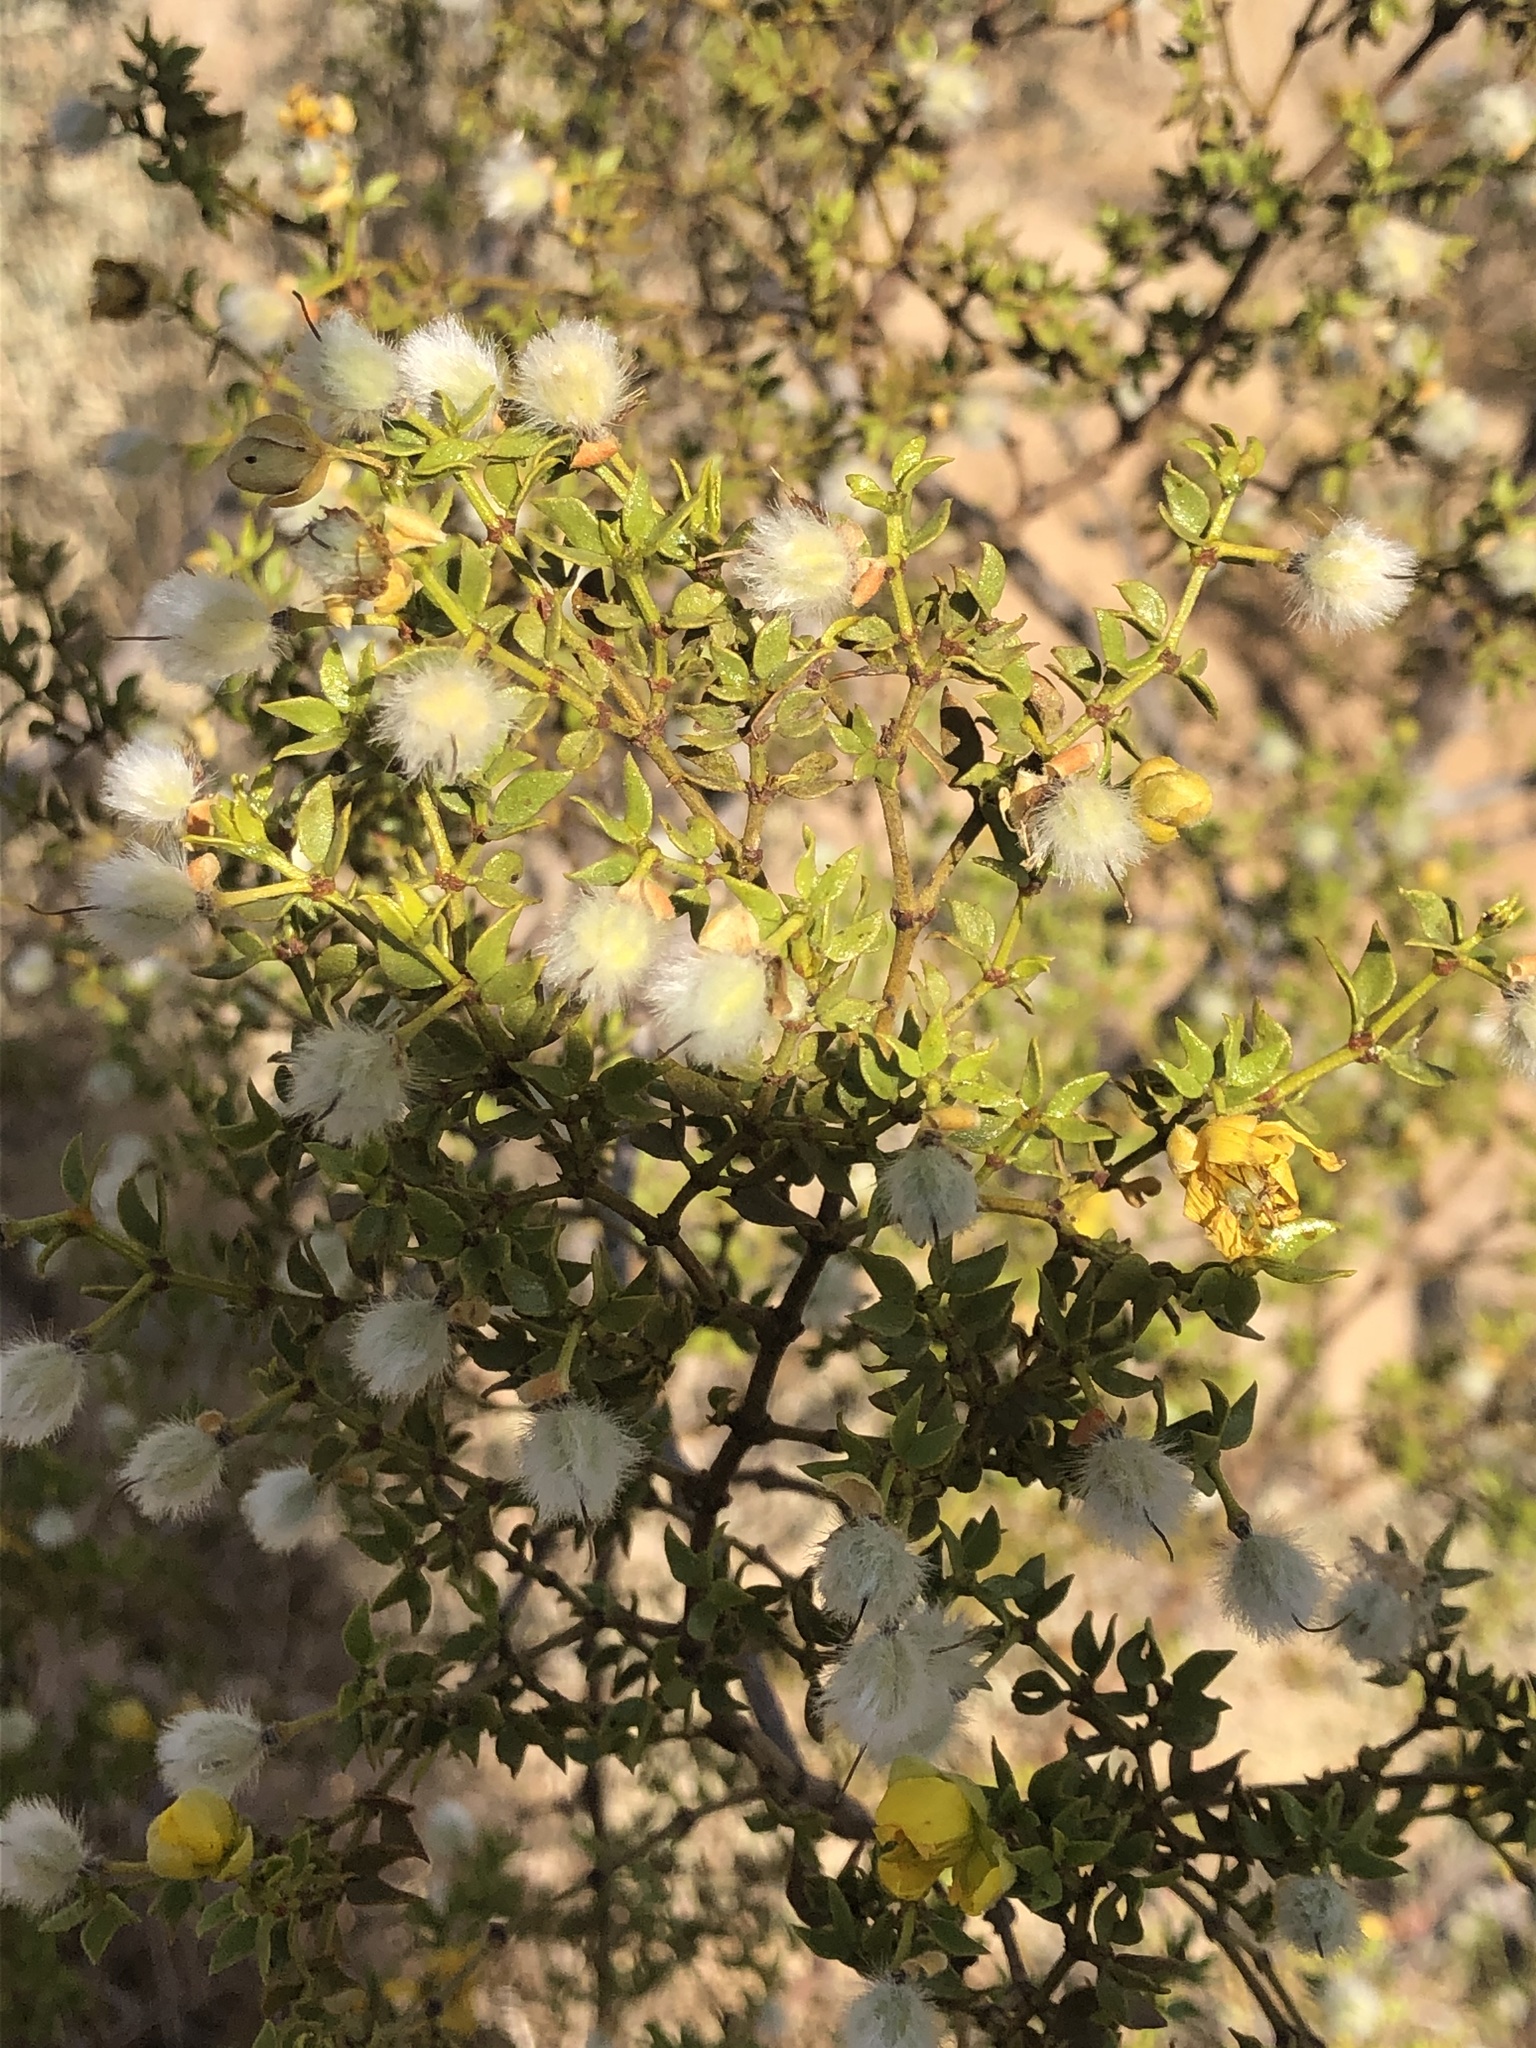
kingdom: Plantae
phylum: Tracheophyta
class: Magnoliopsida
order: Zygophyllales
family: Zygophyllaceae
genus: Larrea
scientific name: Larrea tridentata
